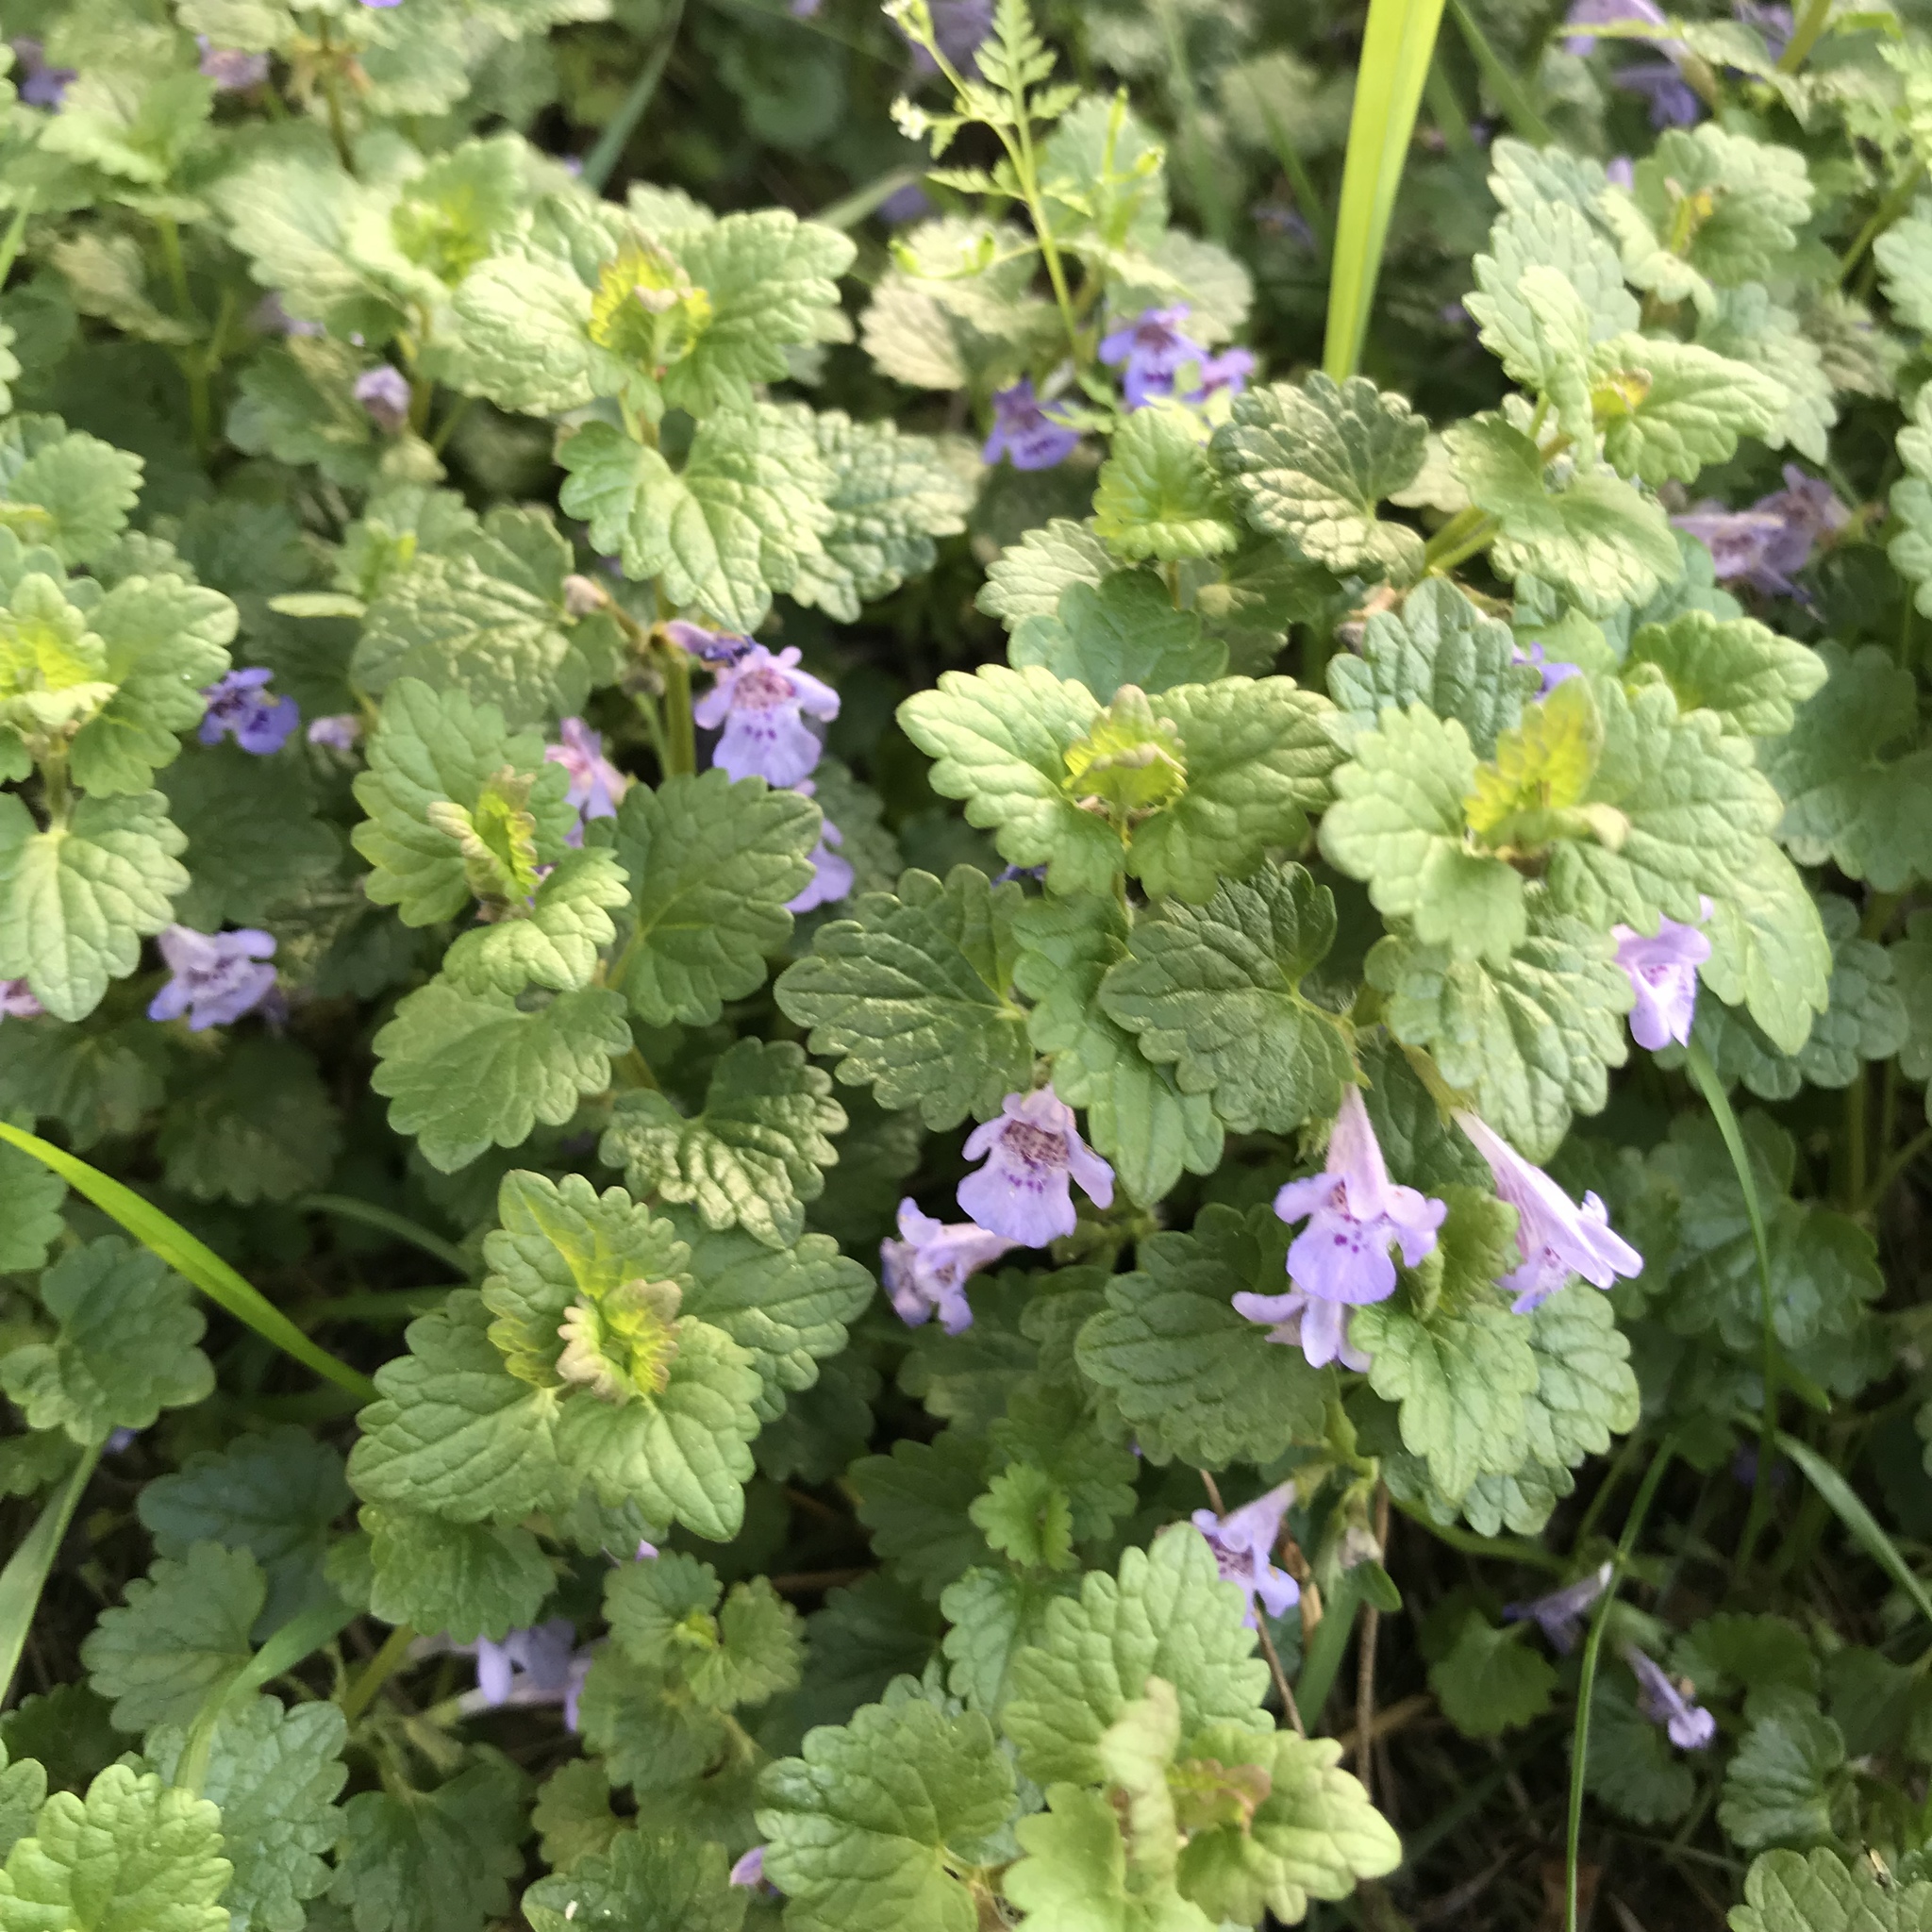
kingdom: Plantae
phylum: Tracheophyta
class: Magnoliopsida
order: Lamiales
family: Lamiaceae
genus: Glechoma
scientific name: Glechoma hederacea
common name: Ground ivy
